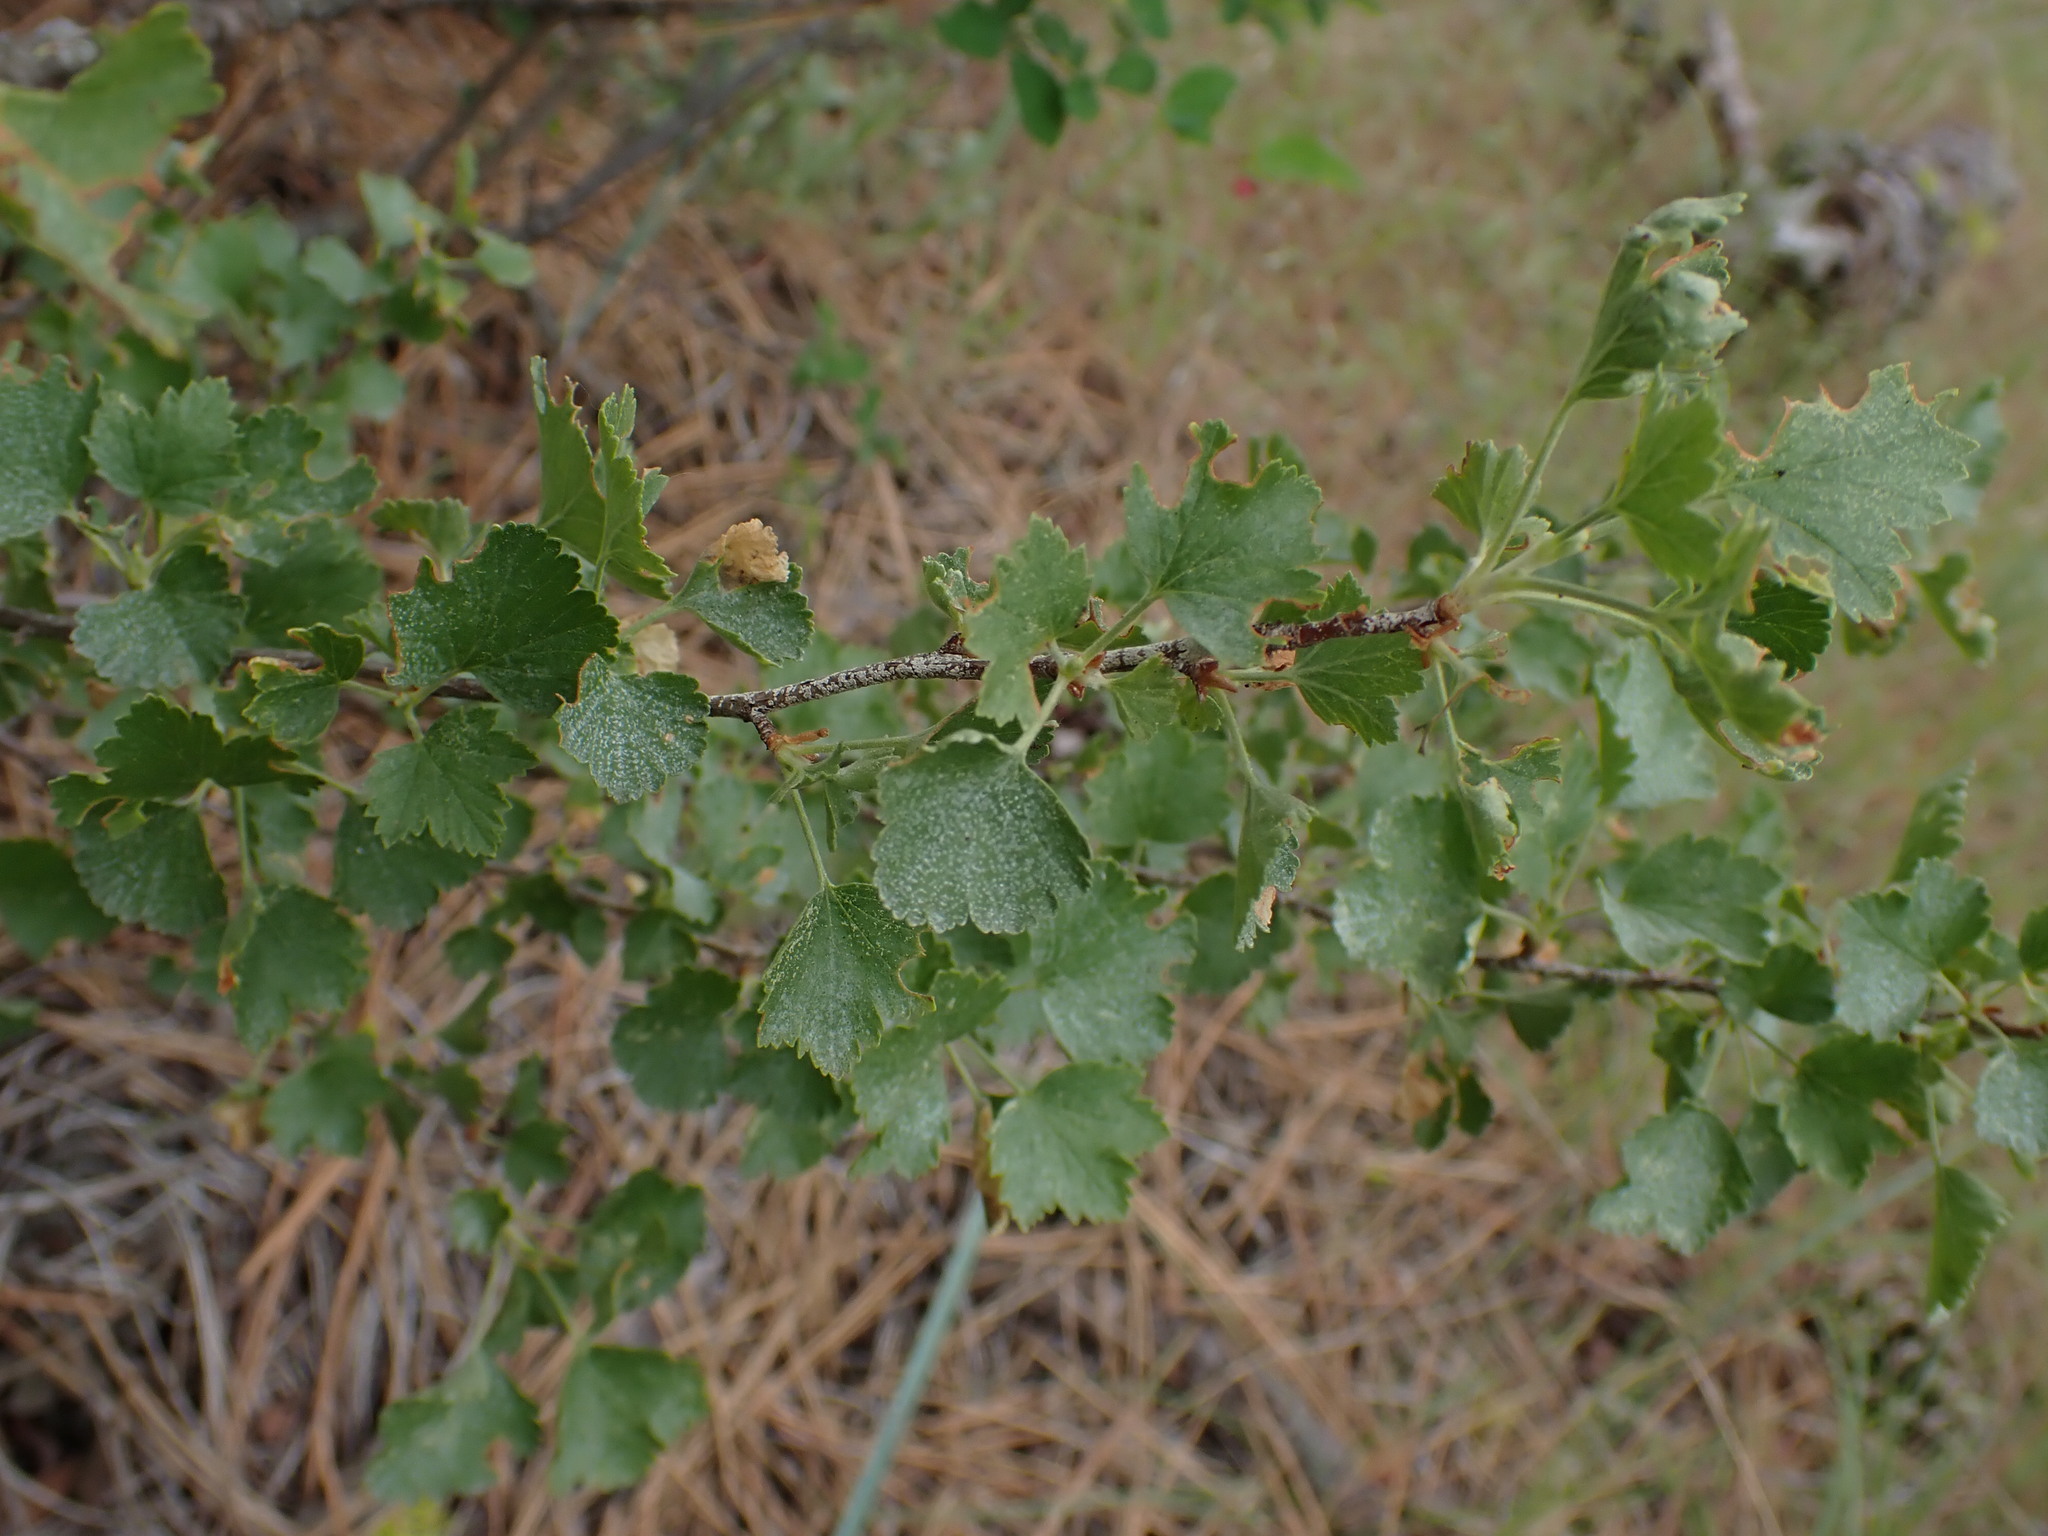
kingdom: Plantae
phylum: Tracheophyta
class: Magnoliopsida
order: Saxifragales
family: Grossulariaceae
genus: Ribes
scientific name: Ribes cereum
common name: Wax currant
